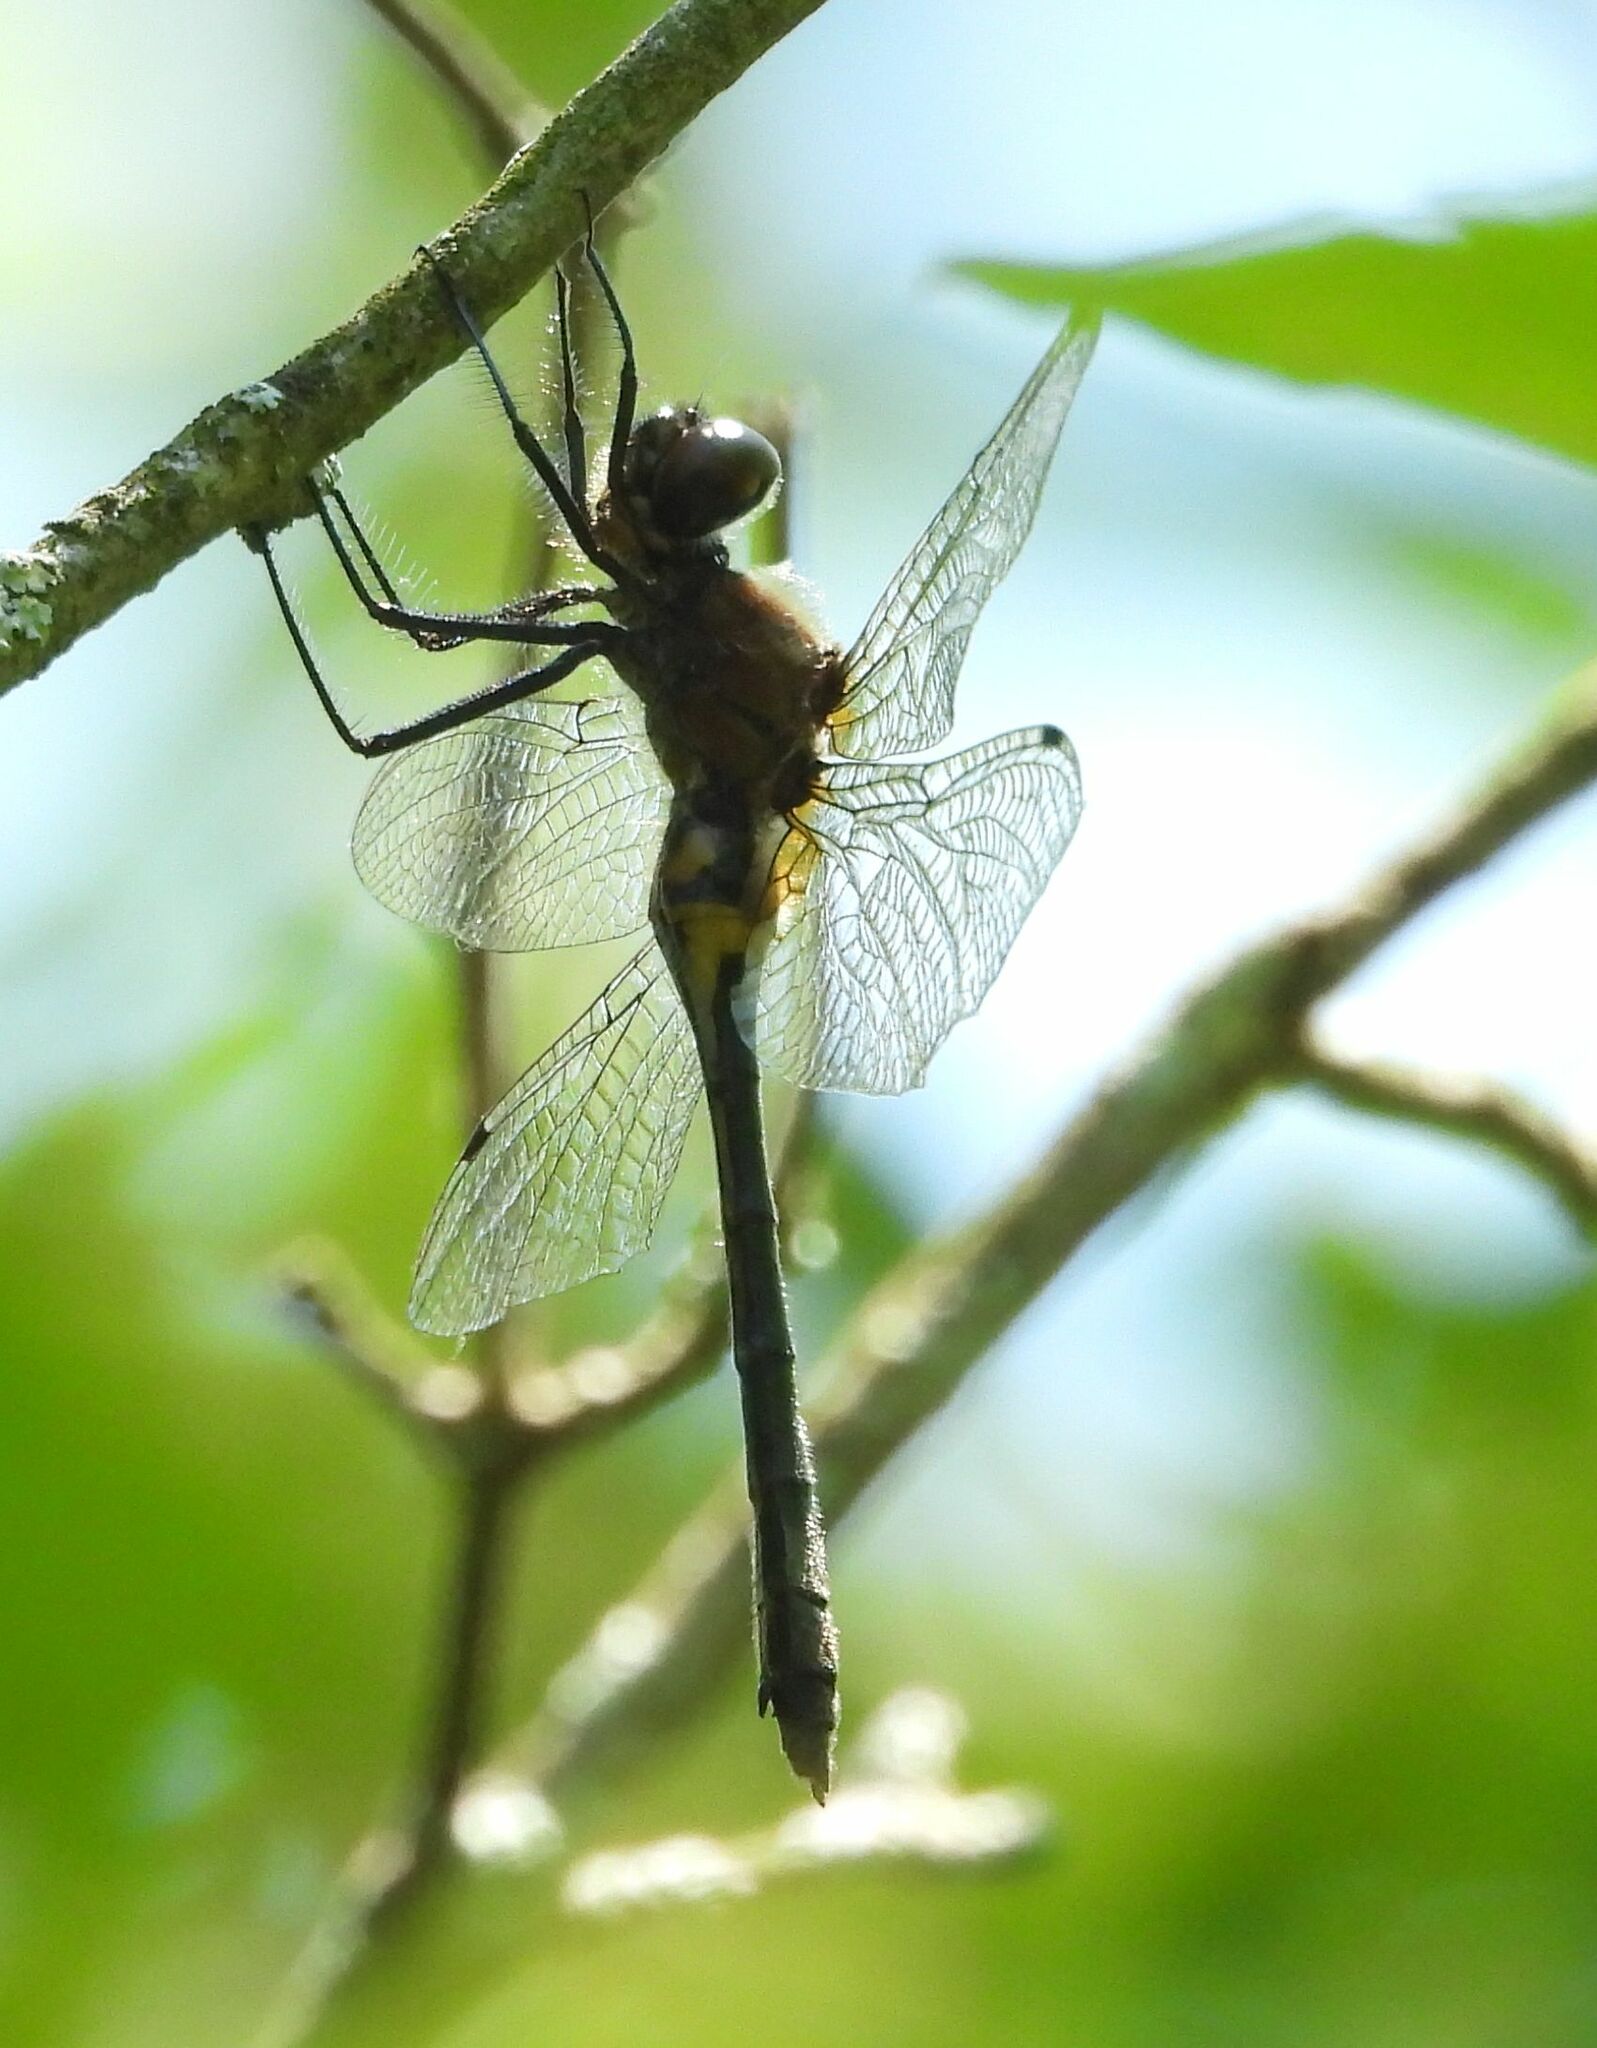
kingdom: Animalia
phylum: Arthropoda
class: Insecta
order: Odonata
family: Corduliidae
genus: Dorocordulia
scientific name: Dorocordulia libera
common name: Racket-tailed emerald
